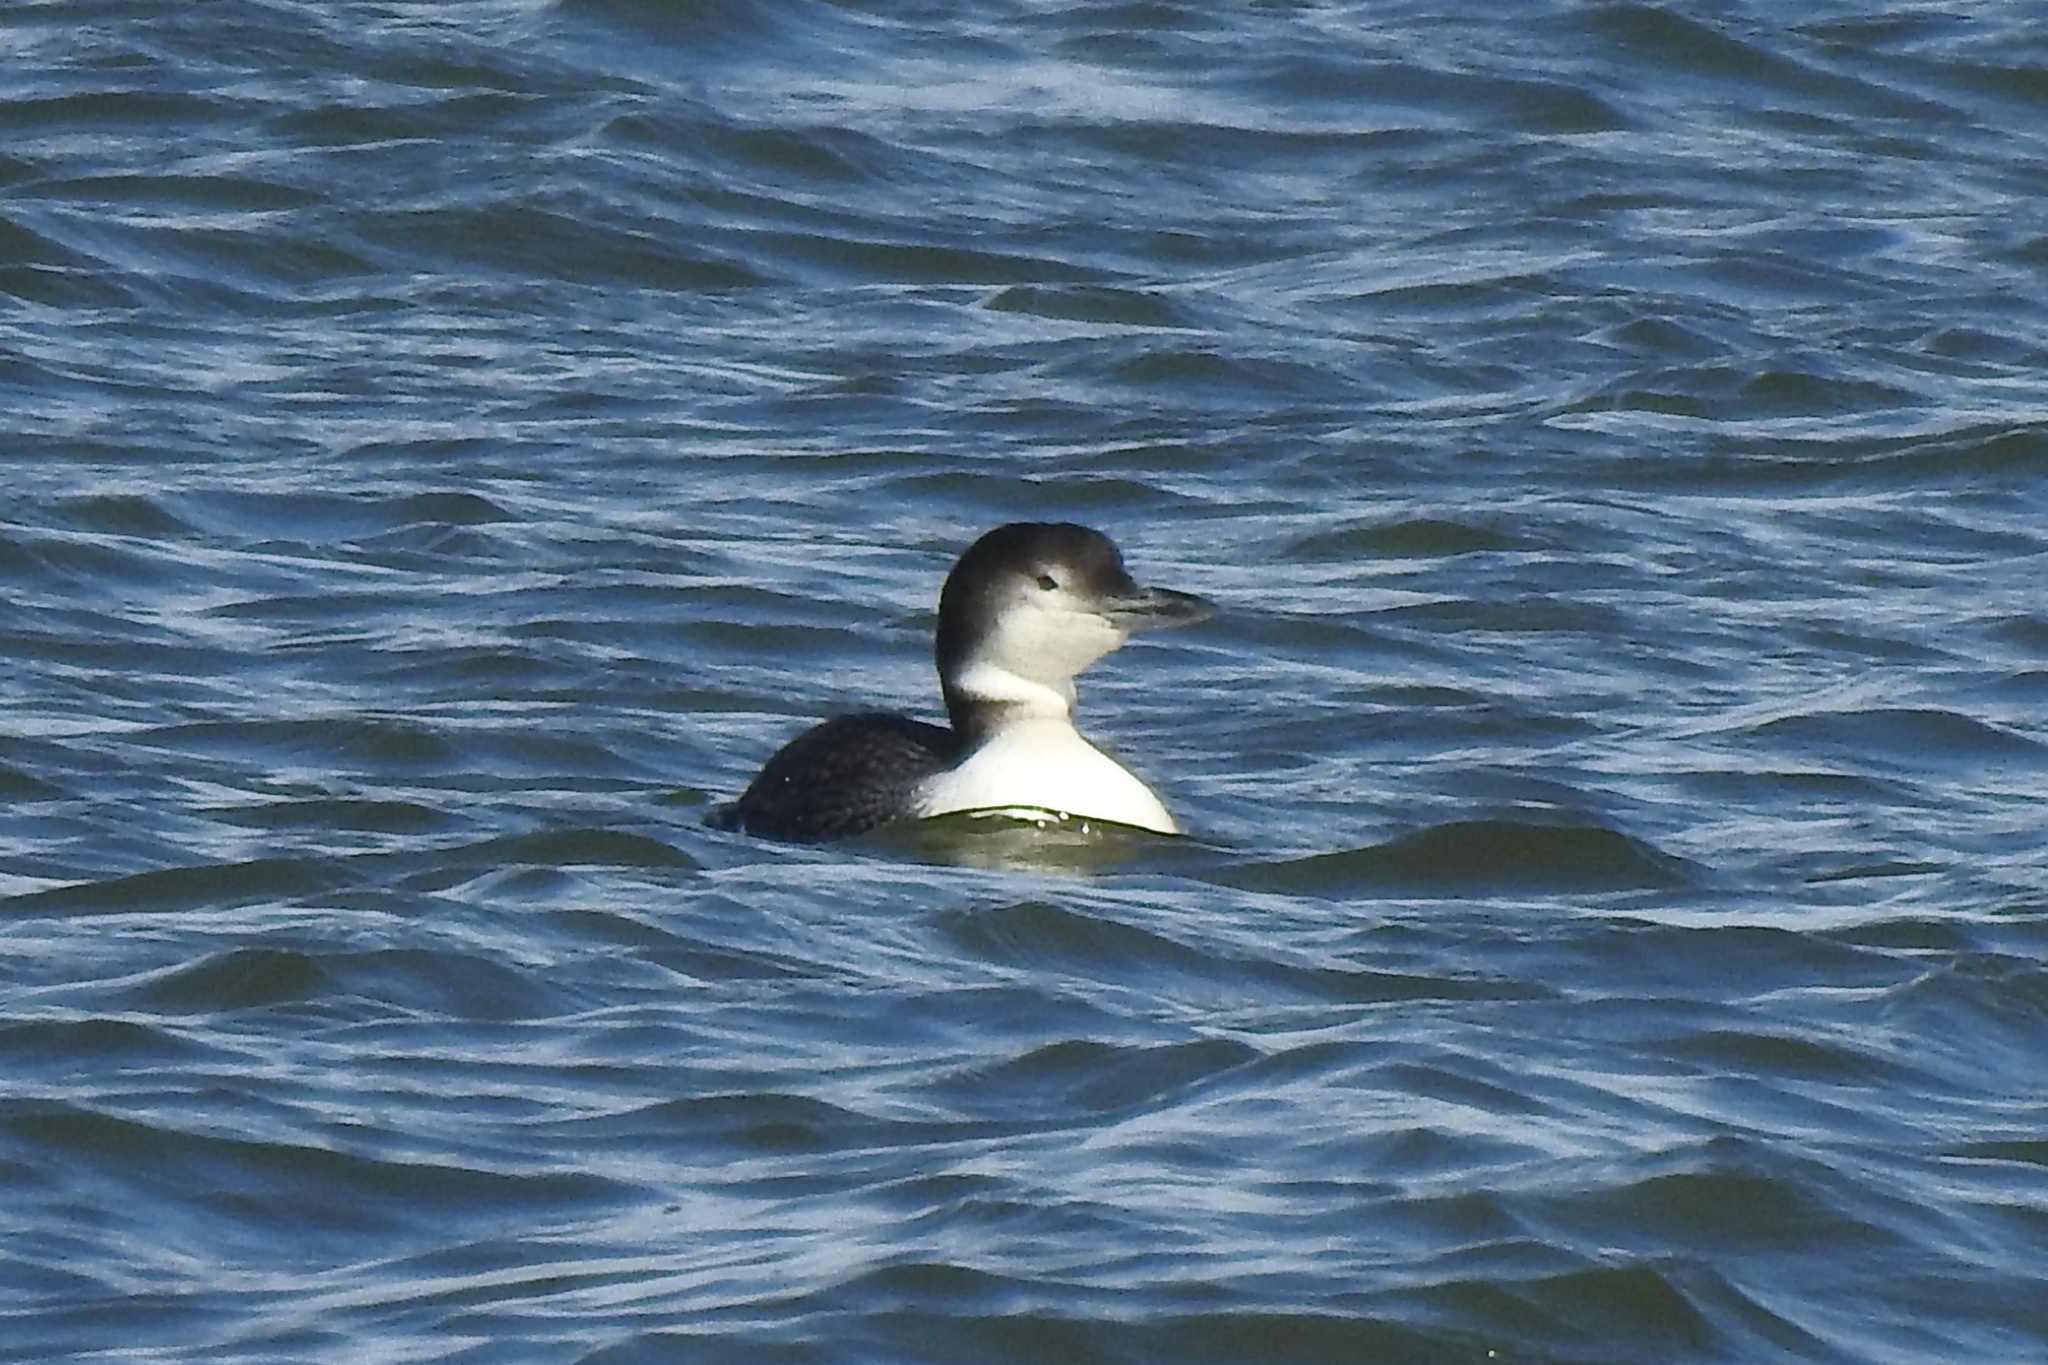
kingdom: Animalia
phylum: Chordata
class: Aves
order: Gaviiformes
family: Gaviidae
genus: Gavia
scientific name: Gavia immer
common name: Common loon
